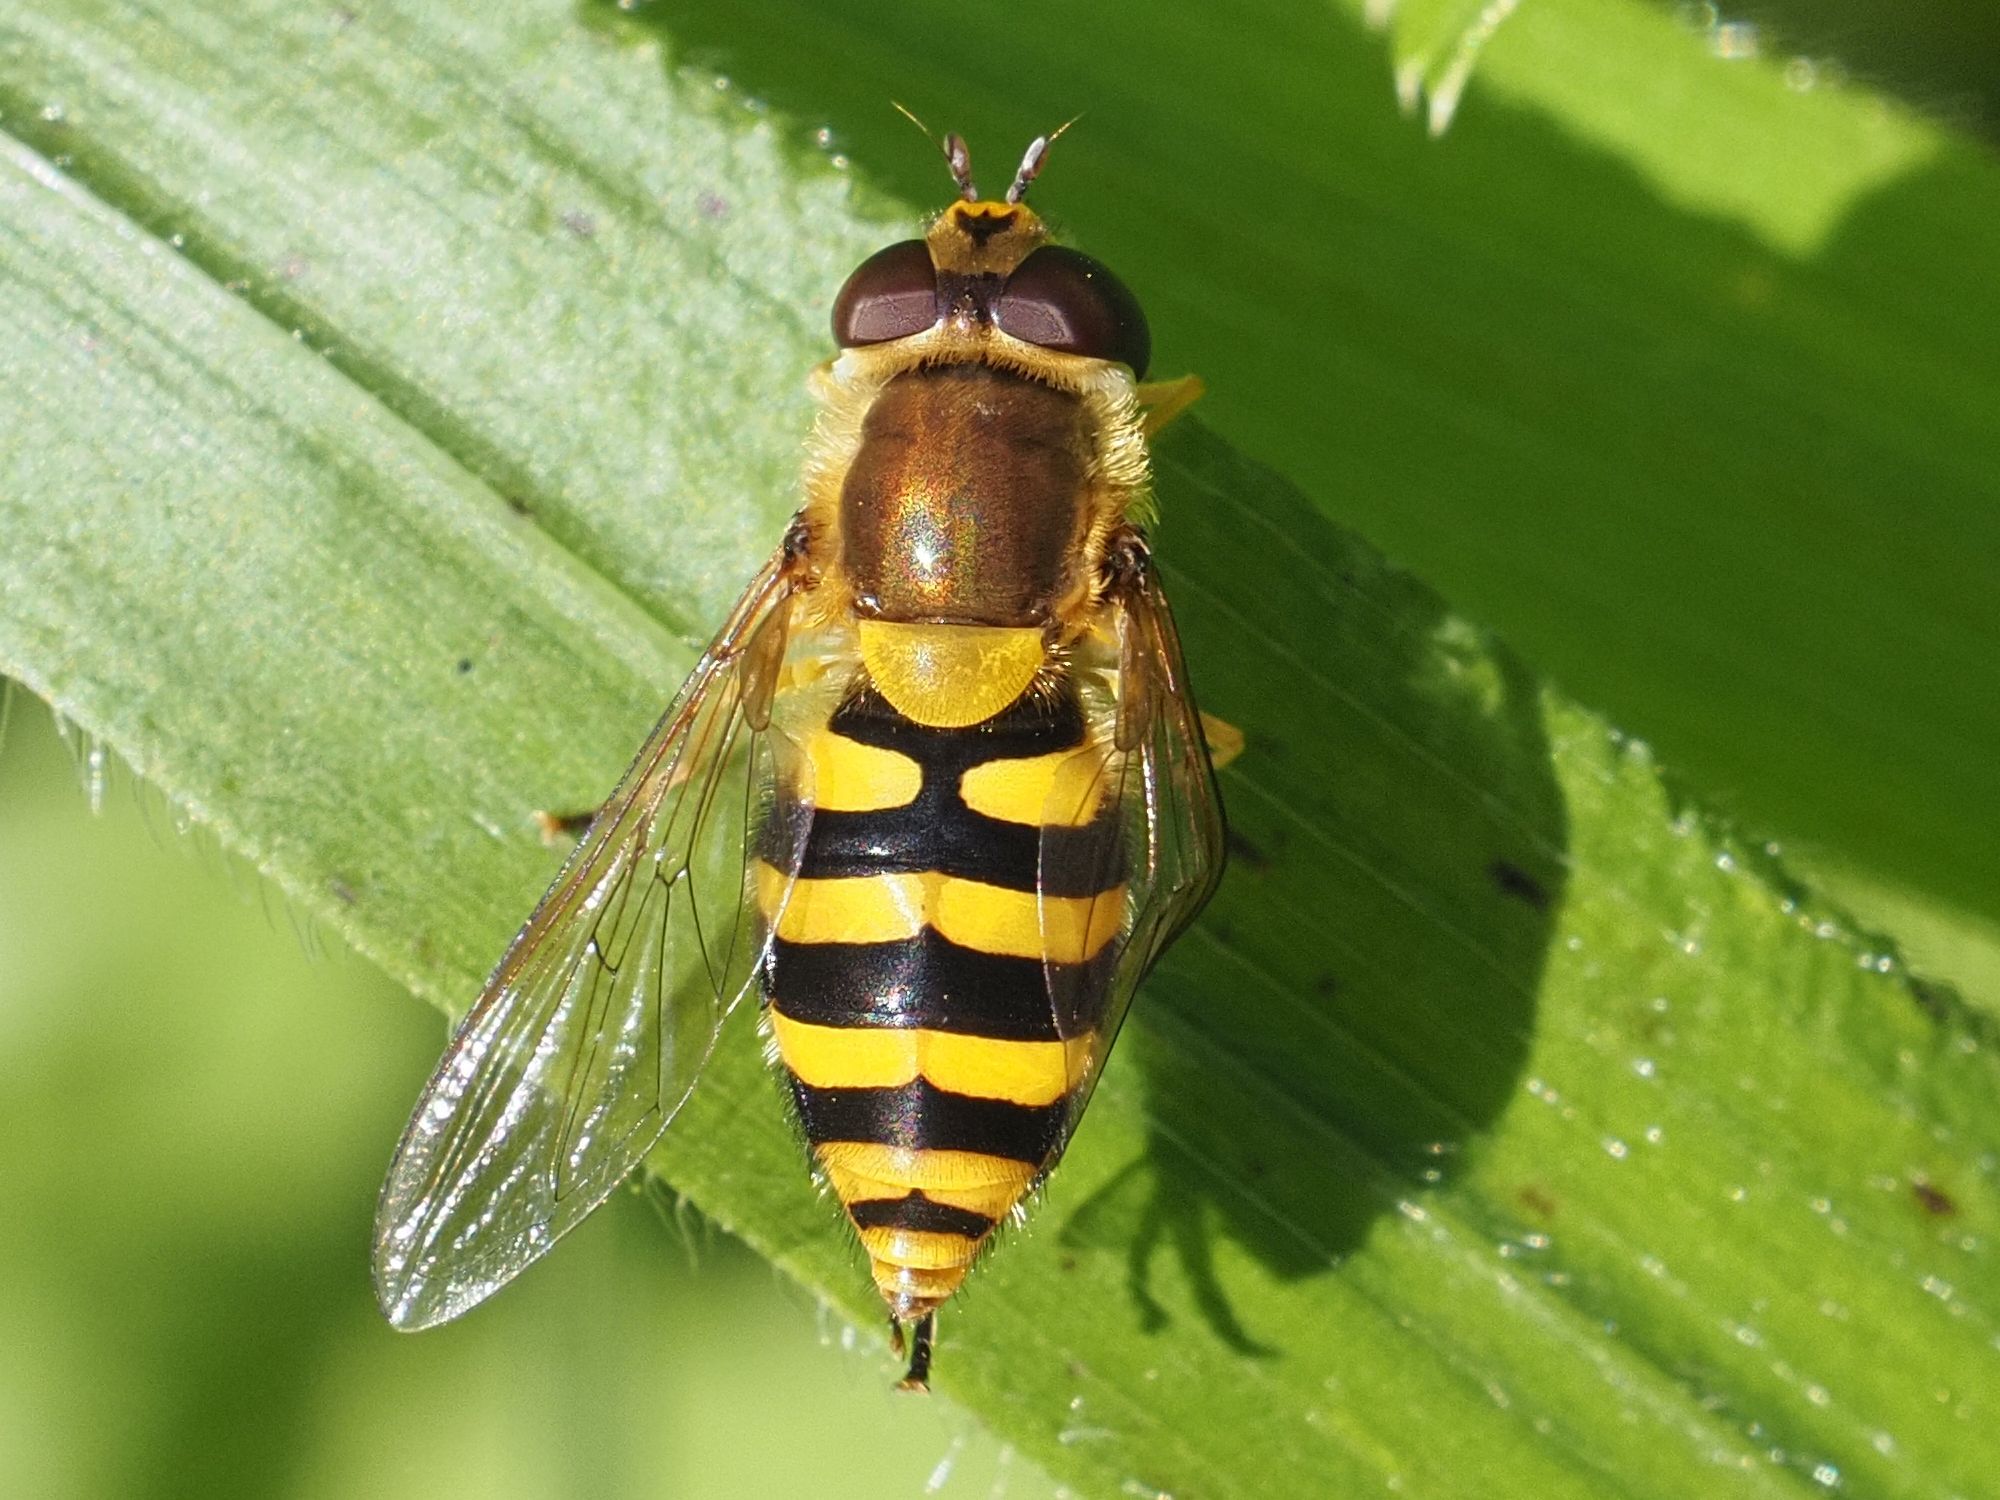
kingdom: Animalia
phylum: Arthropoda
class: Insecta
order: Diptera
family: Syrphidae
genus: Syrphus
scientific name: Syrphus
